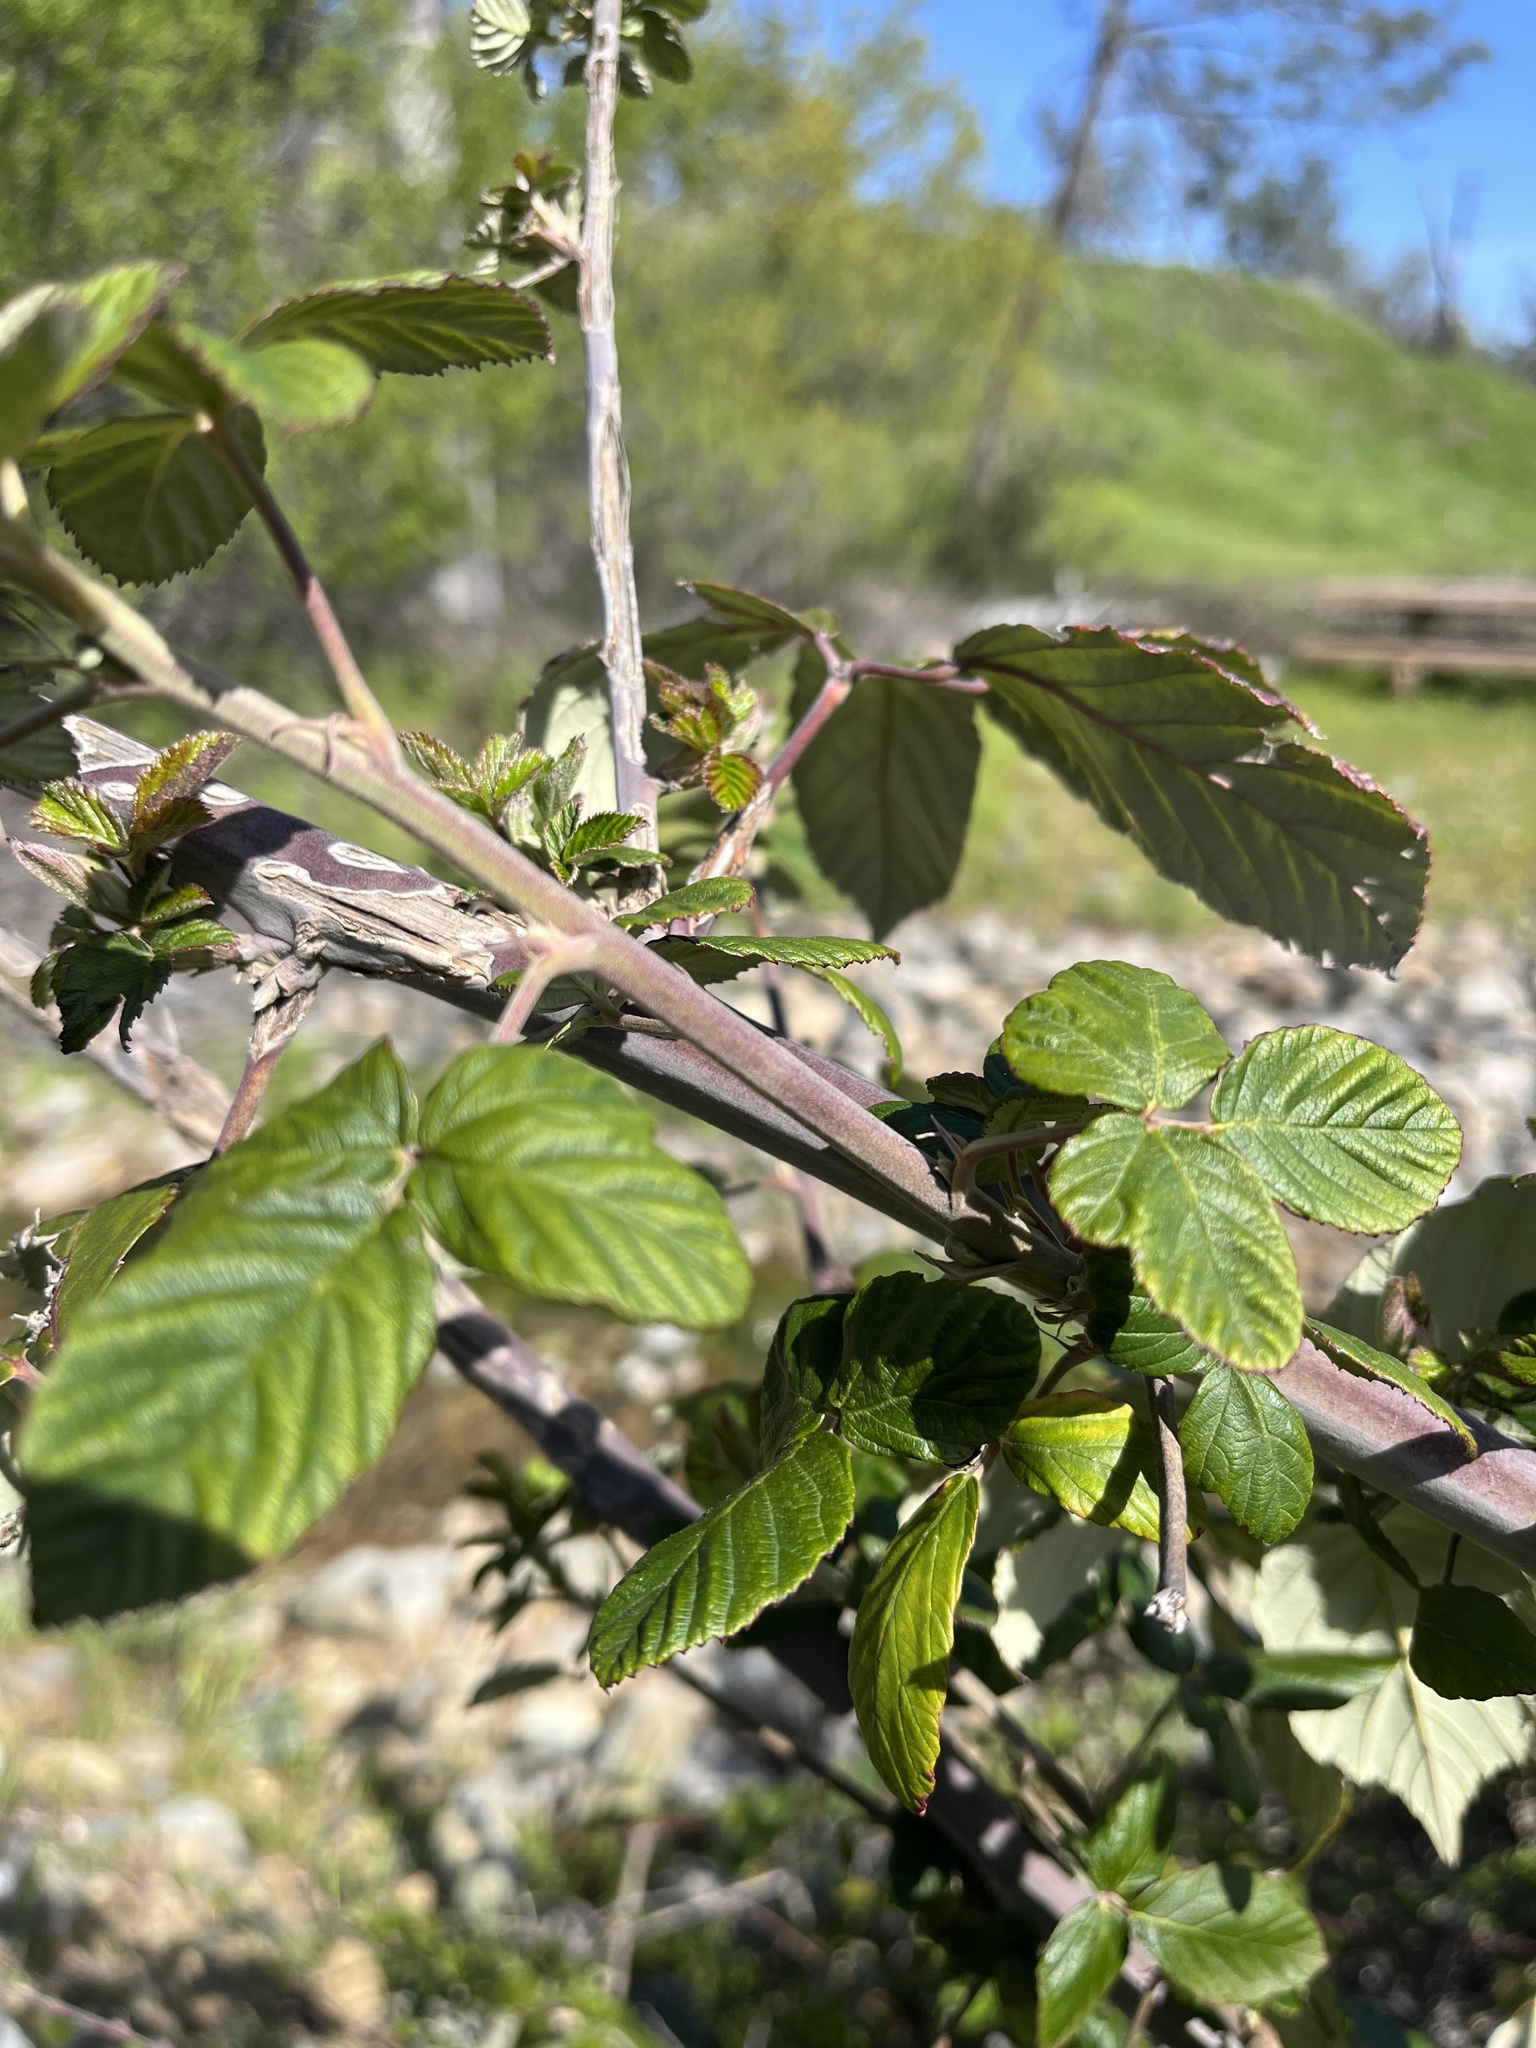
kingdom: Plantae
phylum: Tracheophyta
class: Magnoliopsida
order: Rosales
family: Rosaceae
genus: Rubus
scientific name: Rubus ulmifolius
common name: Elmleaf blackberry
